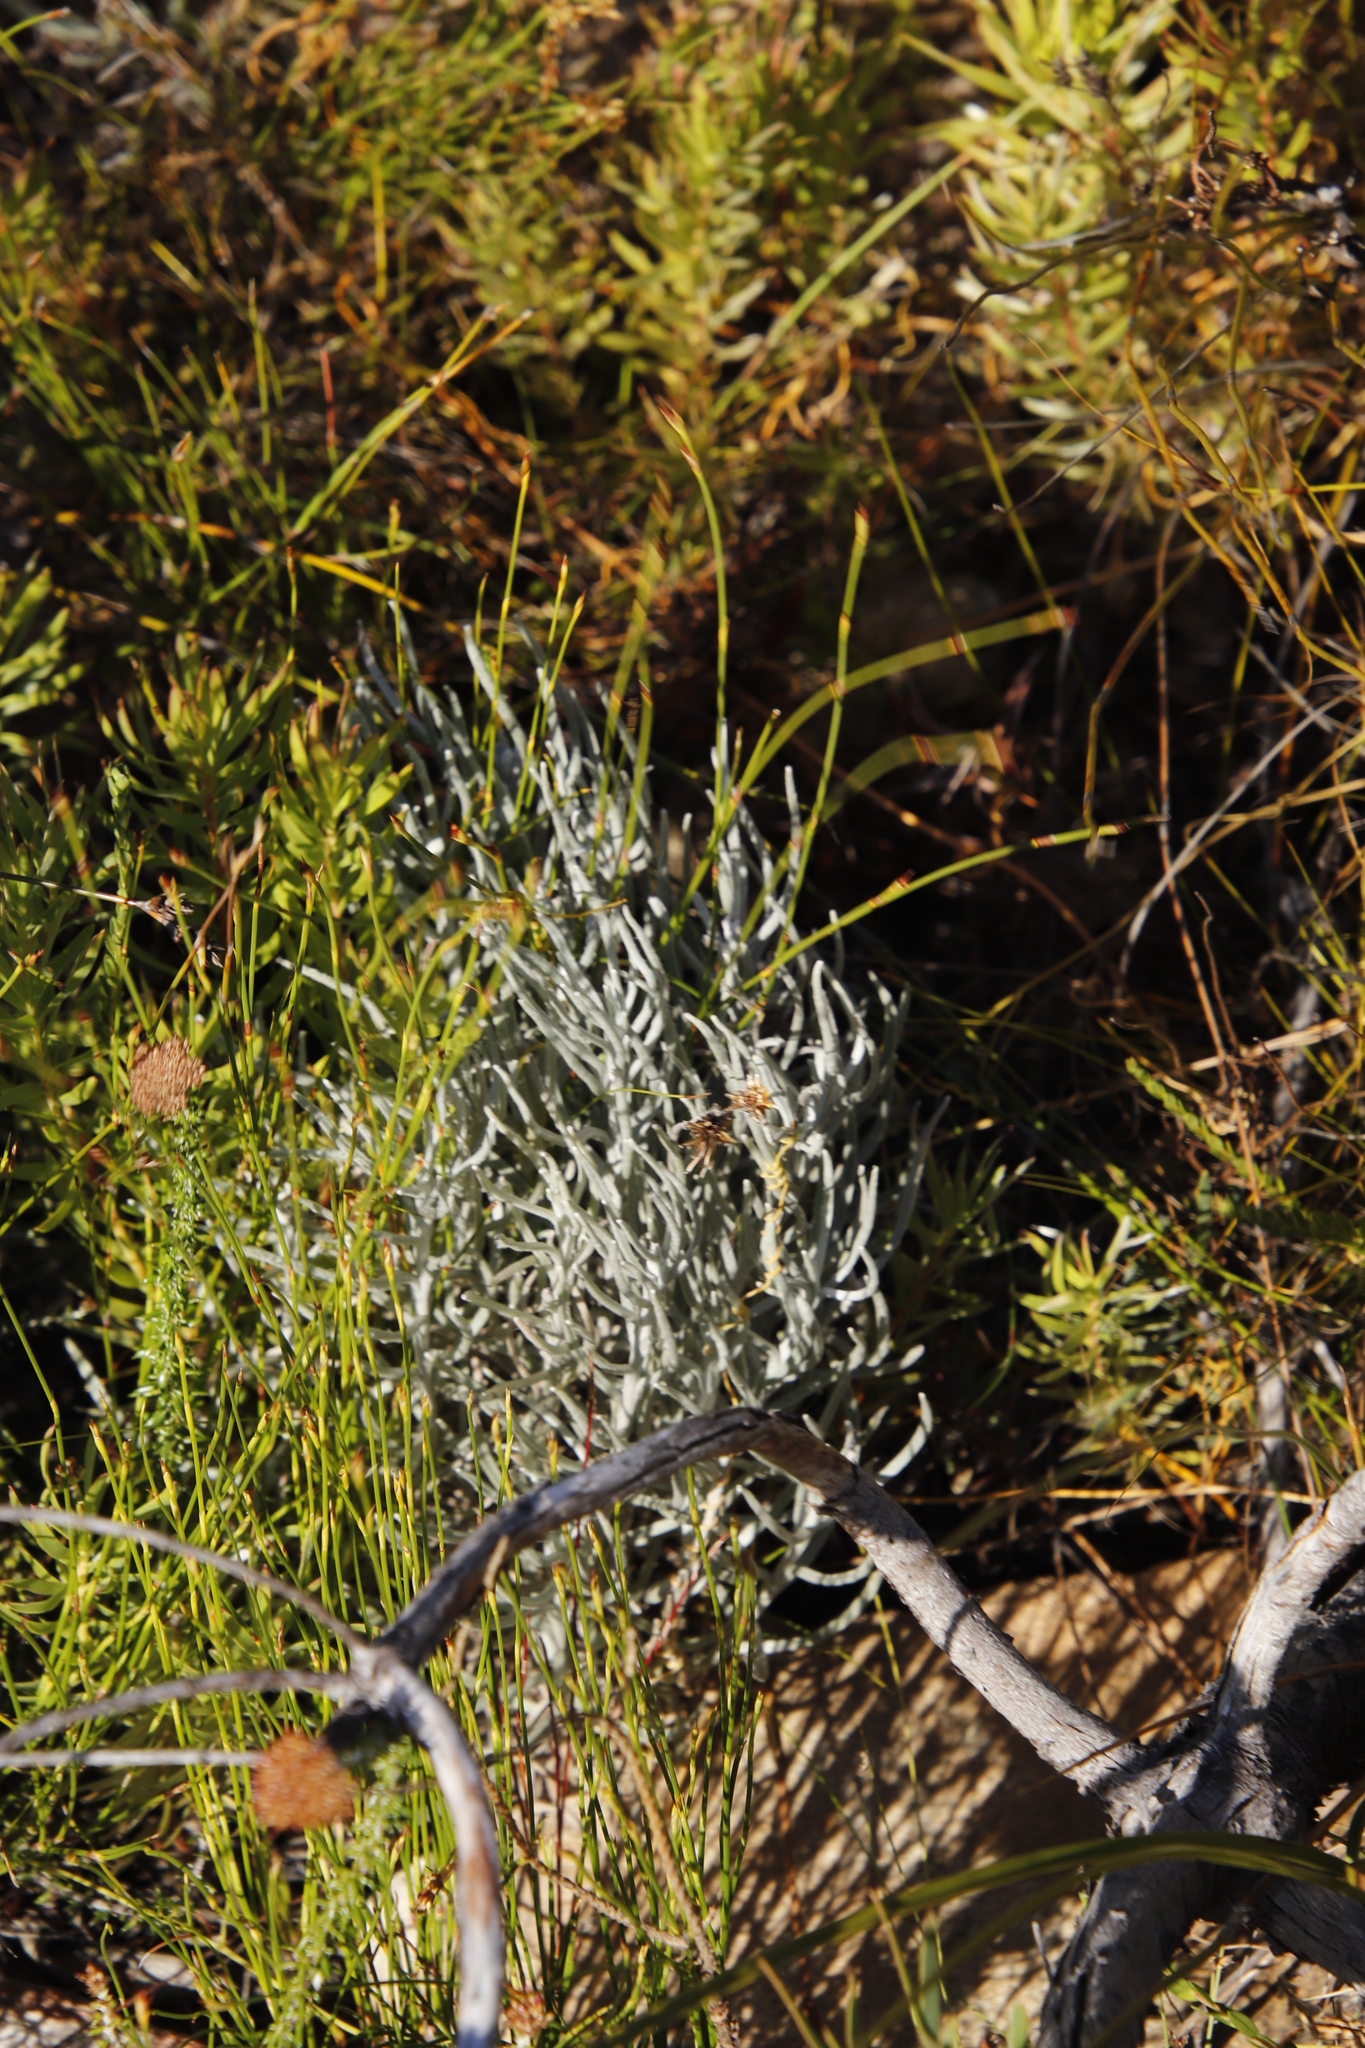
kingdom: Plantae
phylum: Tracheophyta
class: Magnoliopsida
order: Asterales
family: Asteraceae
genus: Syncarpha
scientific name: Syncarpha gnaphaloides
